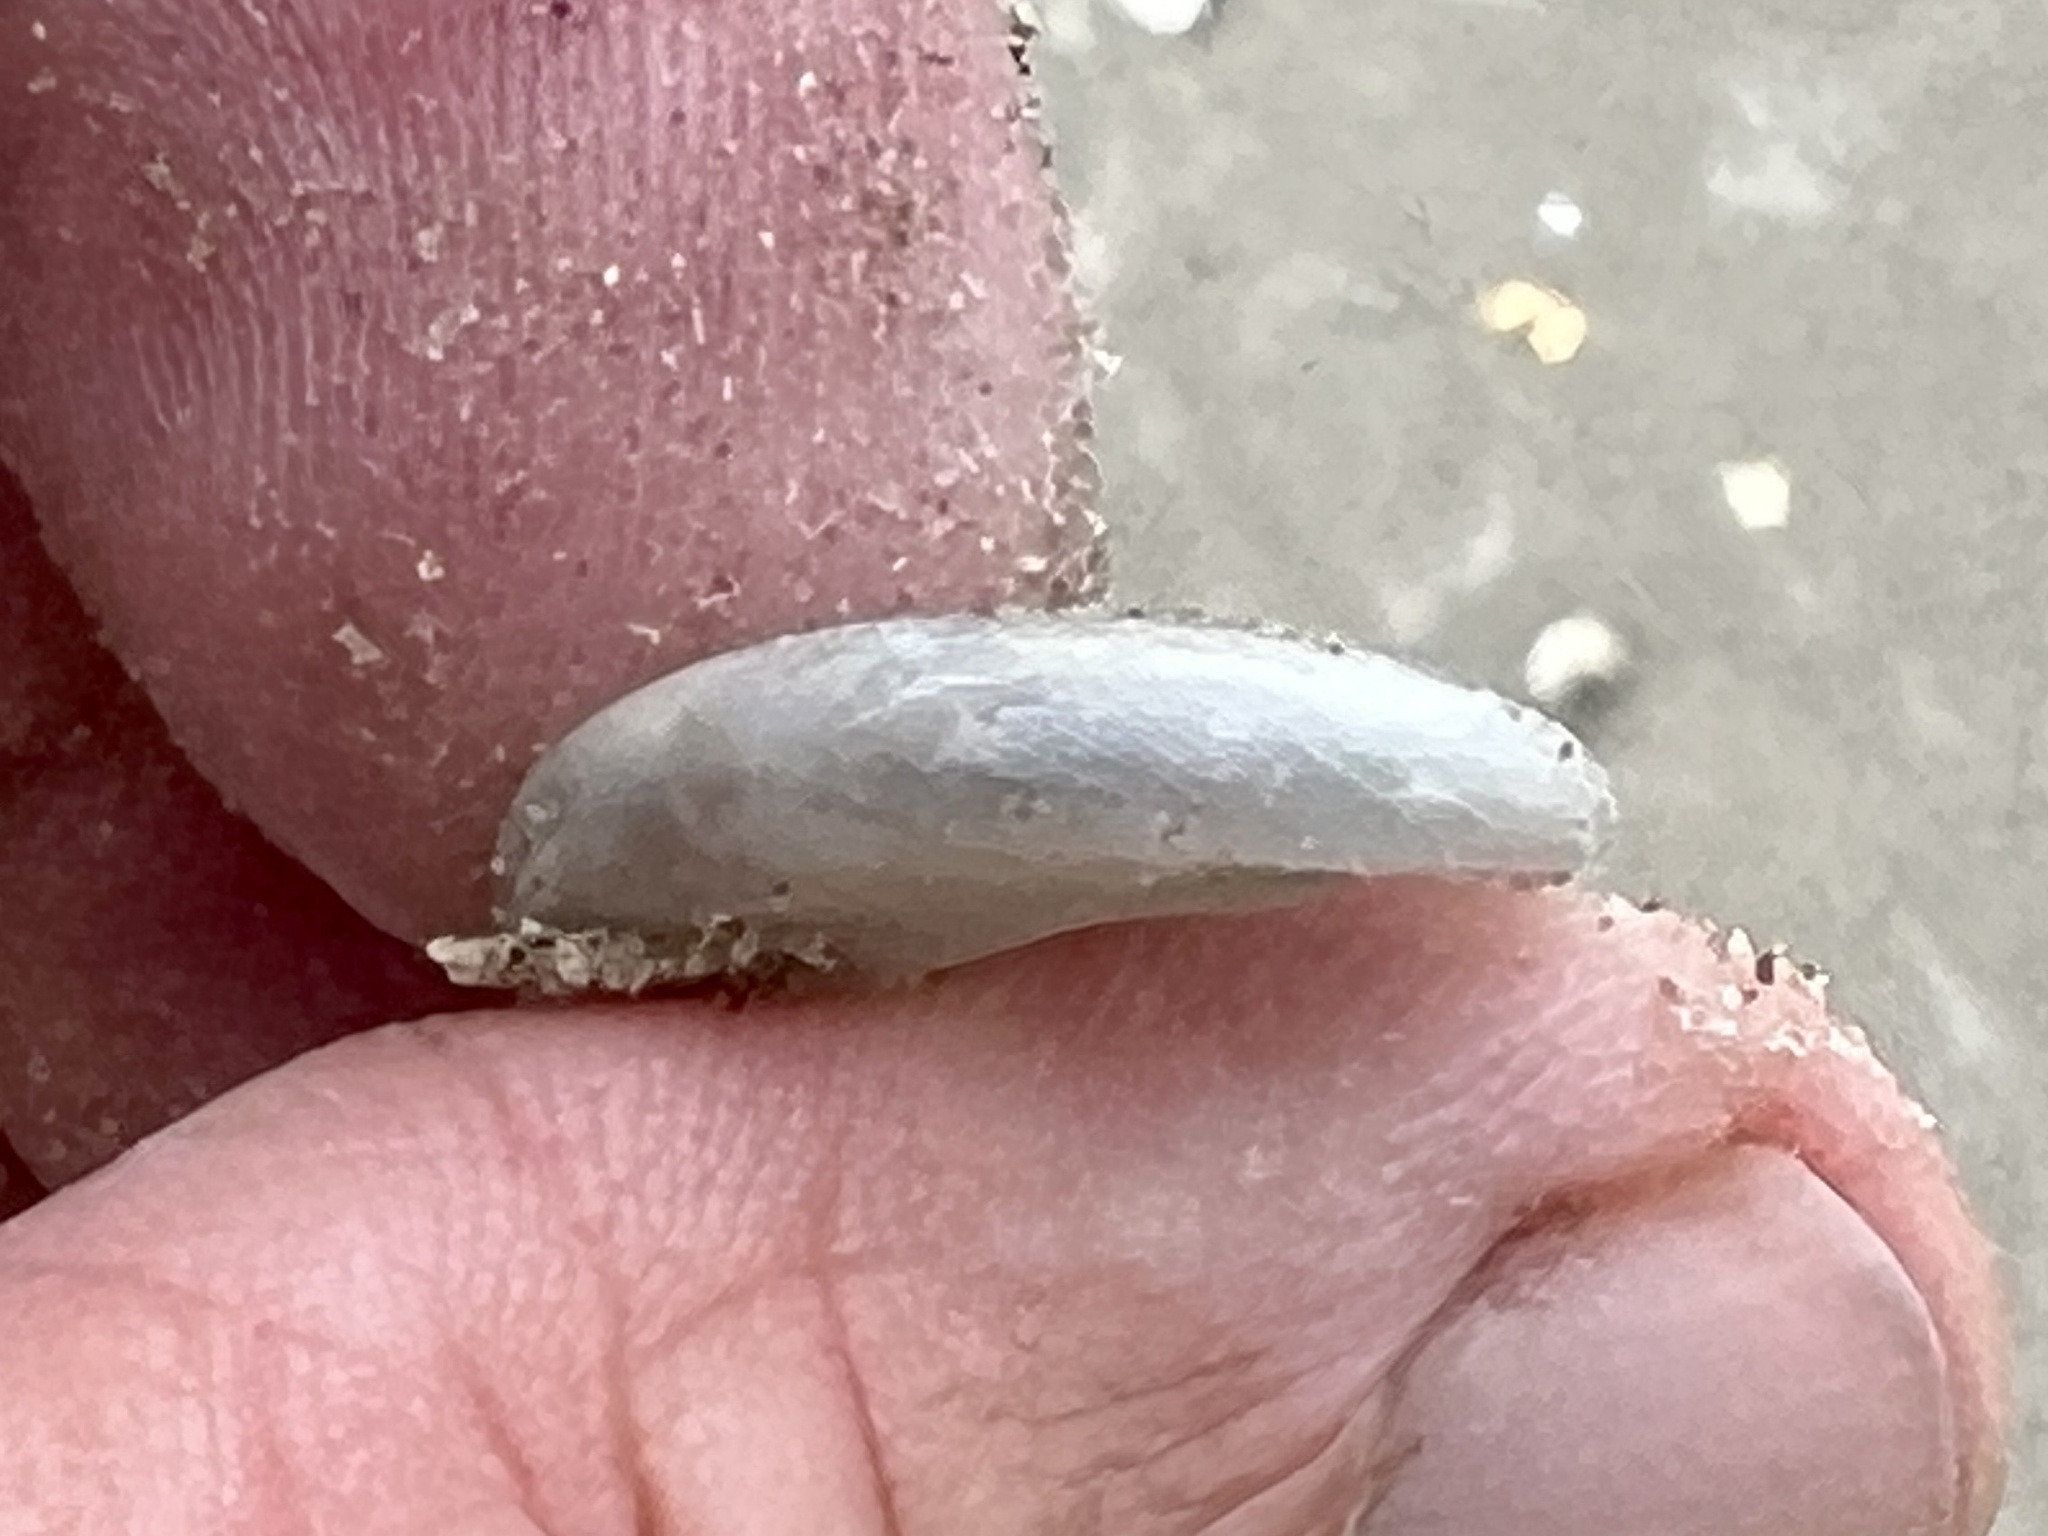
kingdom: Animalia
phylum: Mollusca
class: Gastropoda
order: Littorinimorpha
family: Naticidae
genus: Sinum
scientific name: Sinum perspectivum
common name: White baby ear
